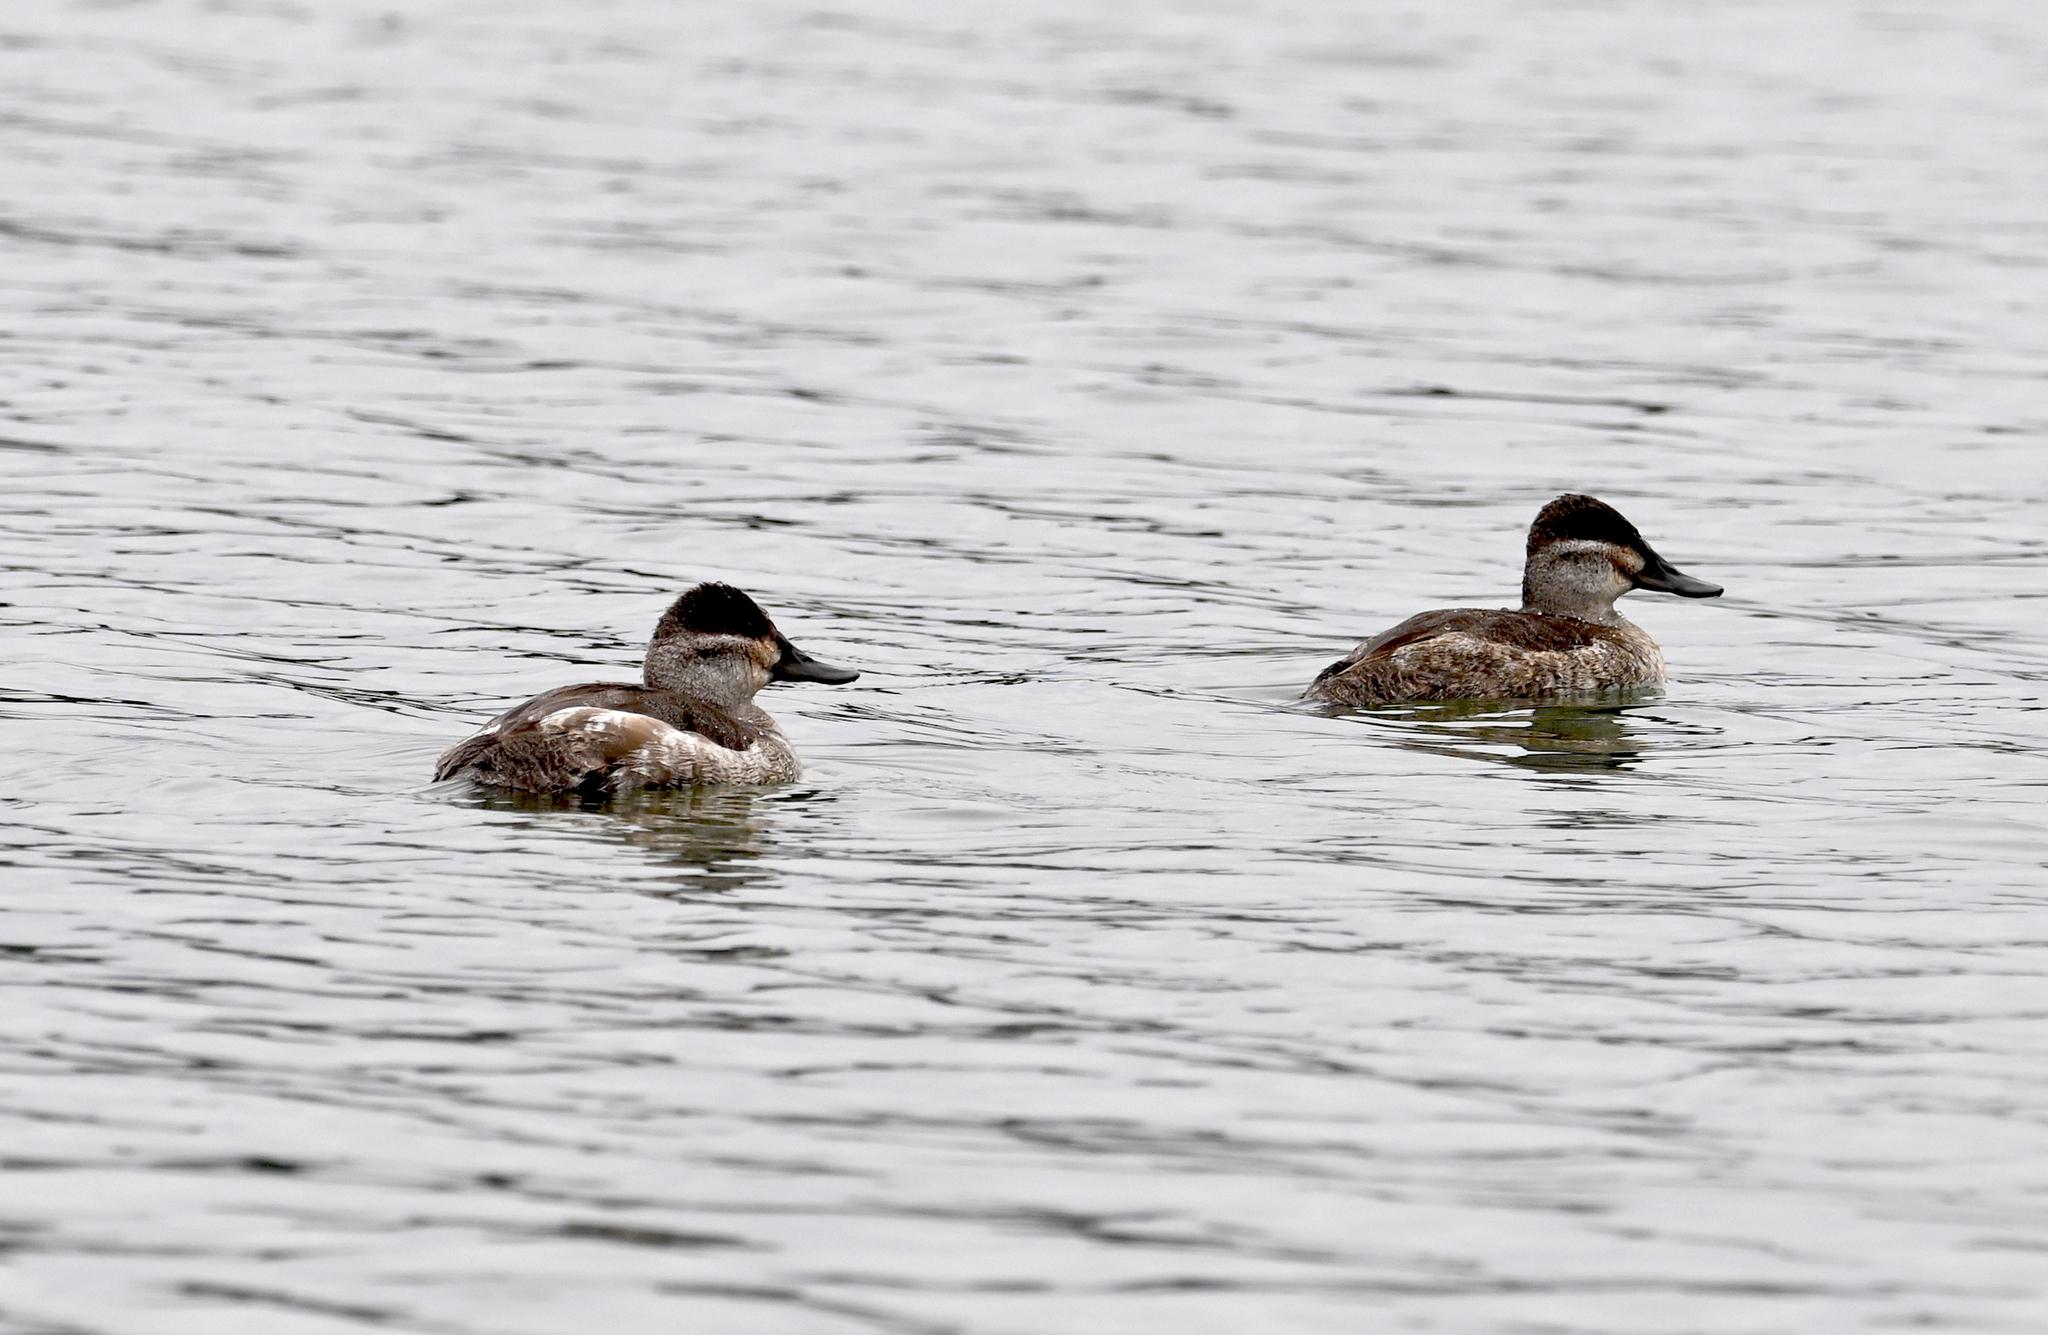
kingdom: Animalia
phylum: Chordata
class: Aves
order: Anseriformes
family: Anatidae
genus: Oxyura
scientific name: Oxyura jamaicensis
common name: Ruddy duck
